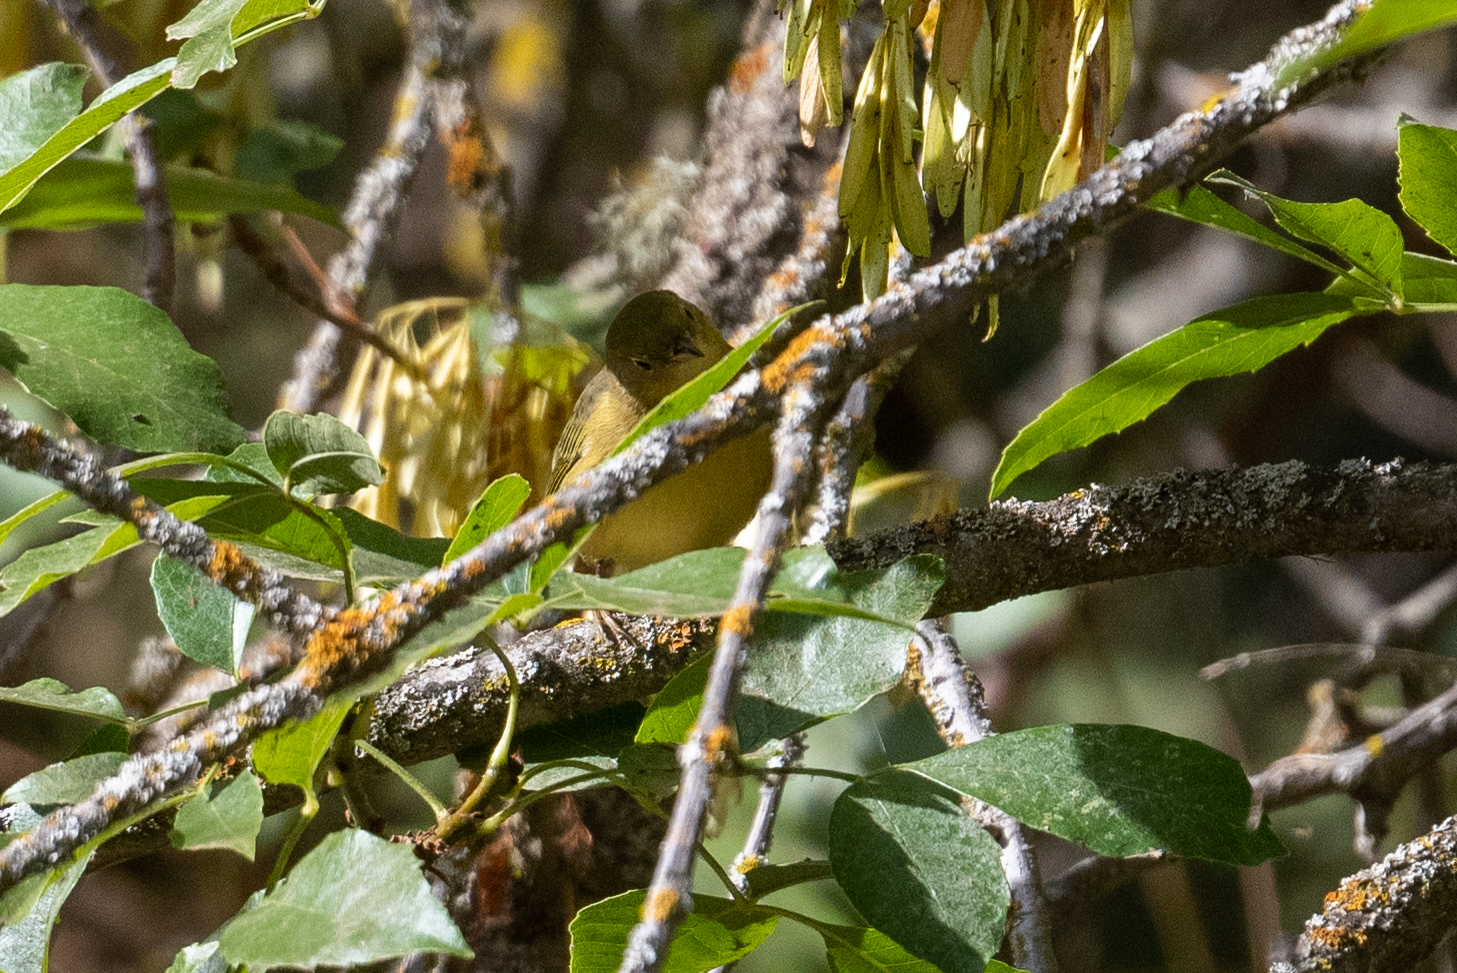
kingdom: Animalia
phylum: Chordata
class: Aves
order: Passeriformes
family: Parulidae
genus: Setophaga
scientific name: Setophaga petechia
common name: Yellow warbler
